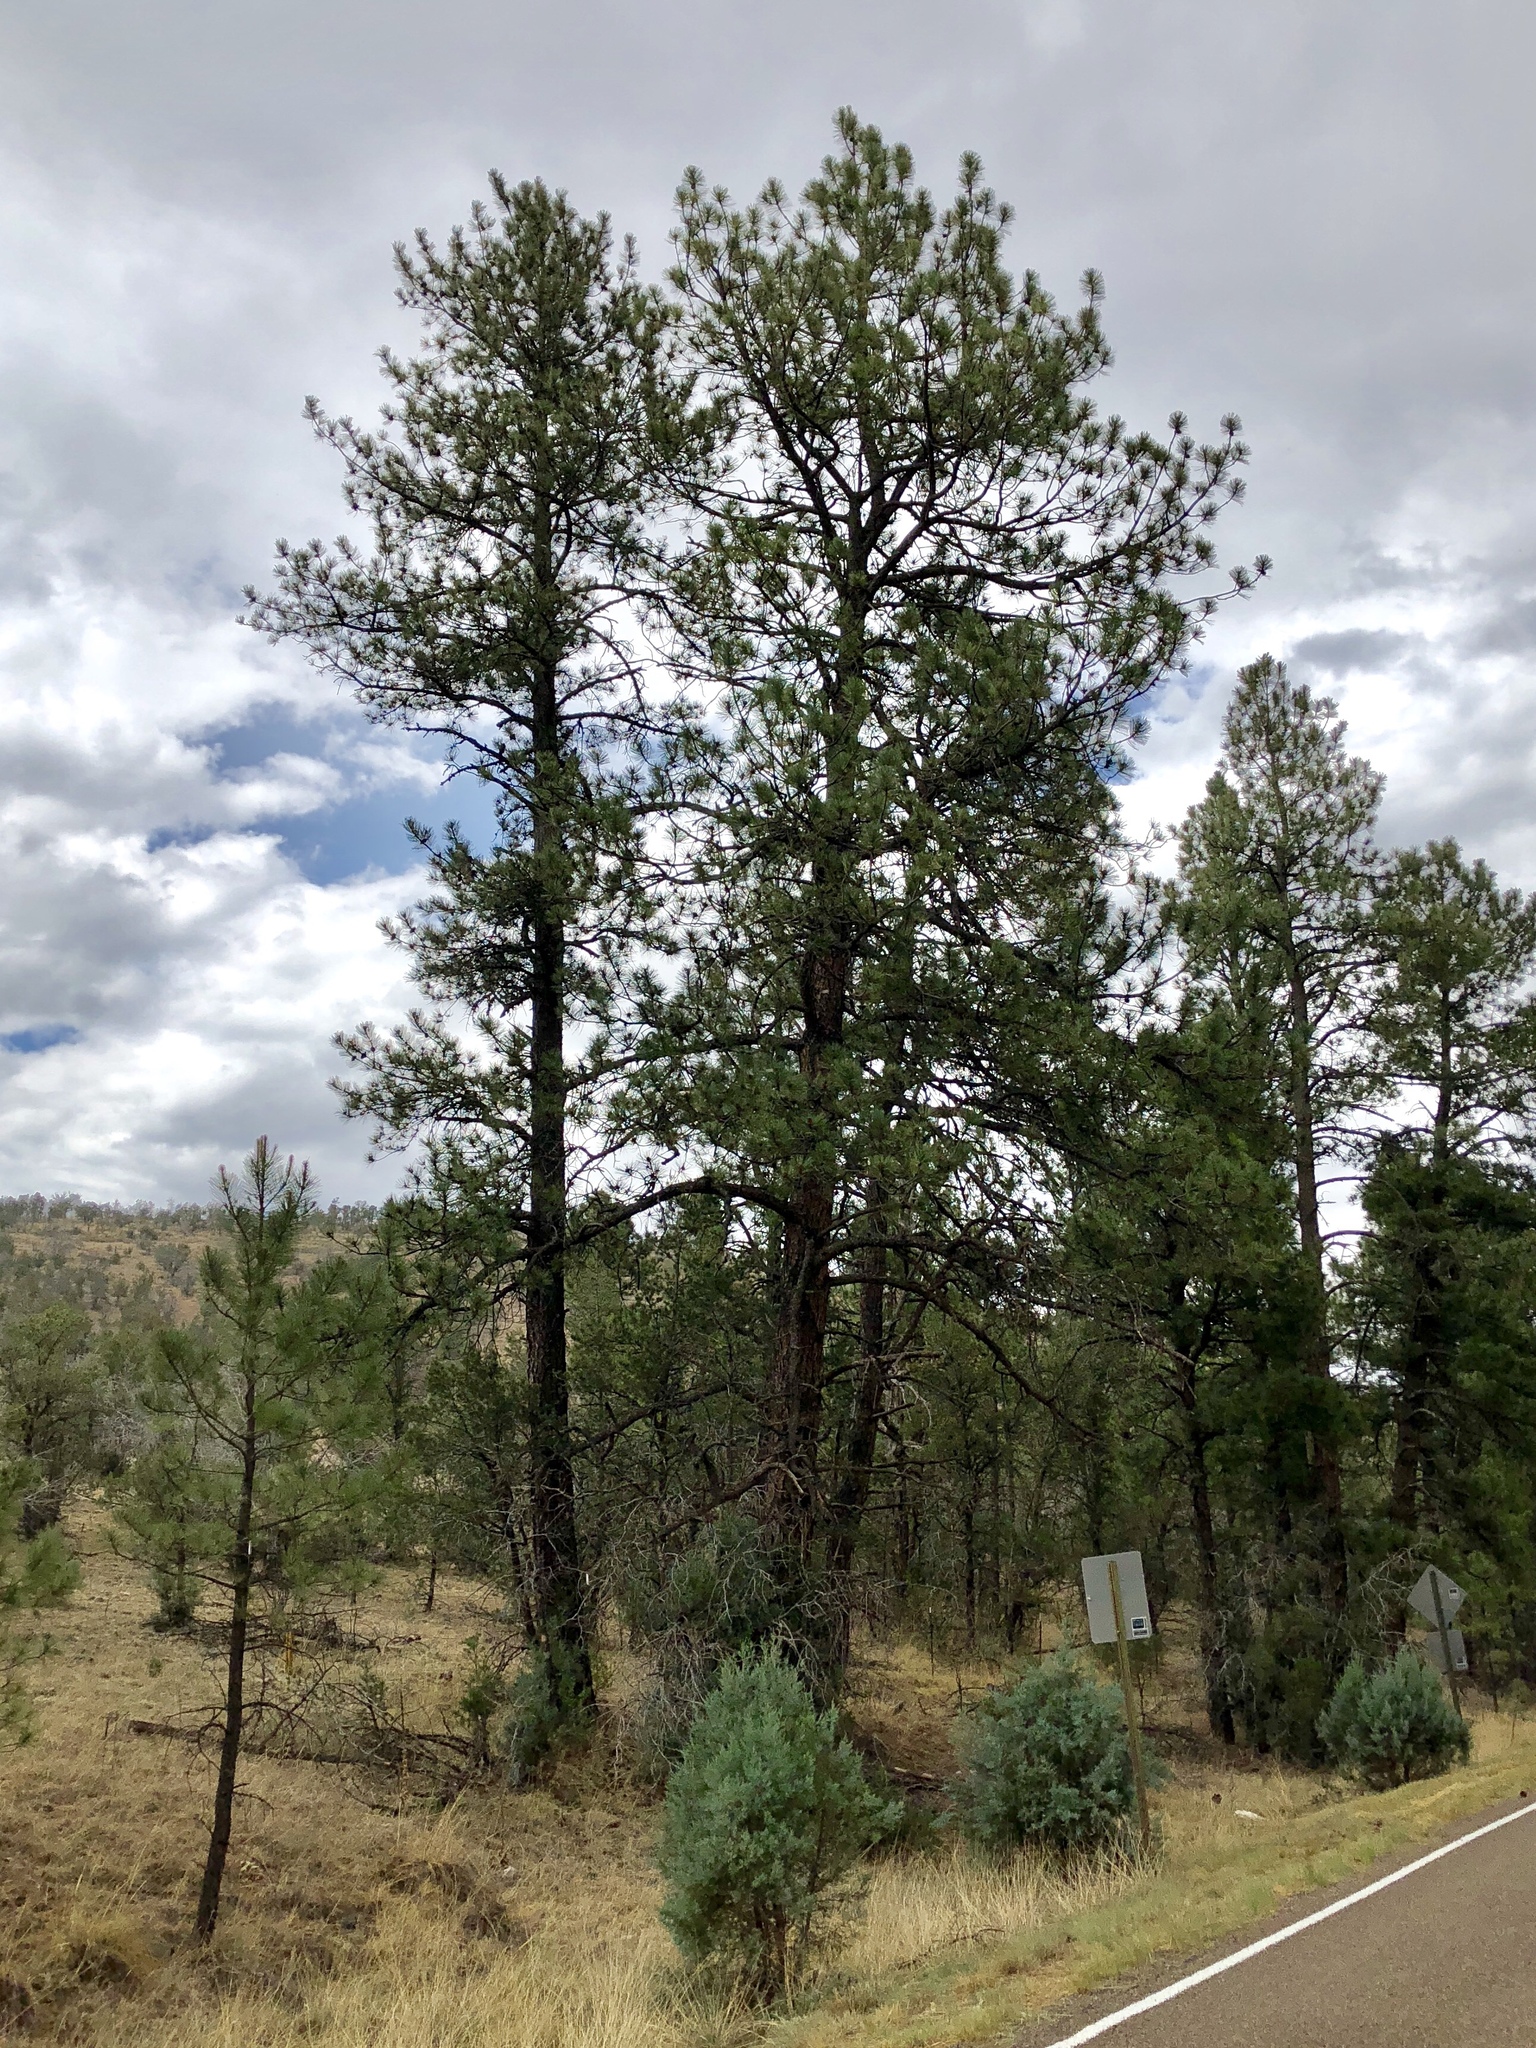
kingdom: Plantae
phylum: Tracheophyta
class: Pinopsida
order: Pinales
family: Pinaceae
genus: Pinus
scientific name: Pinus ponderosa
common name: Western yellow-pine
